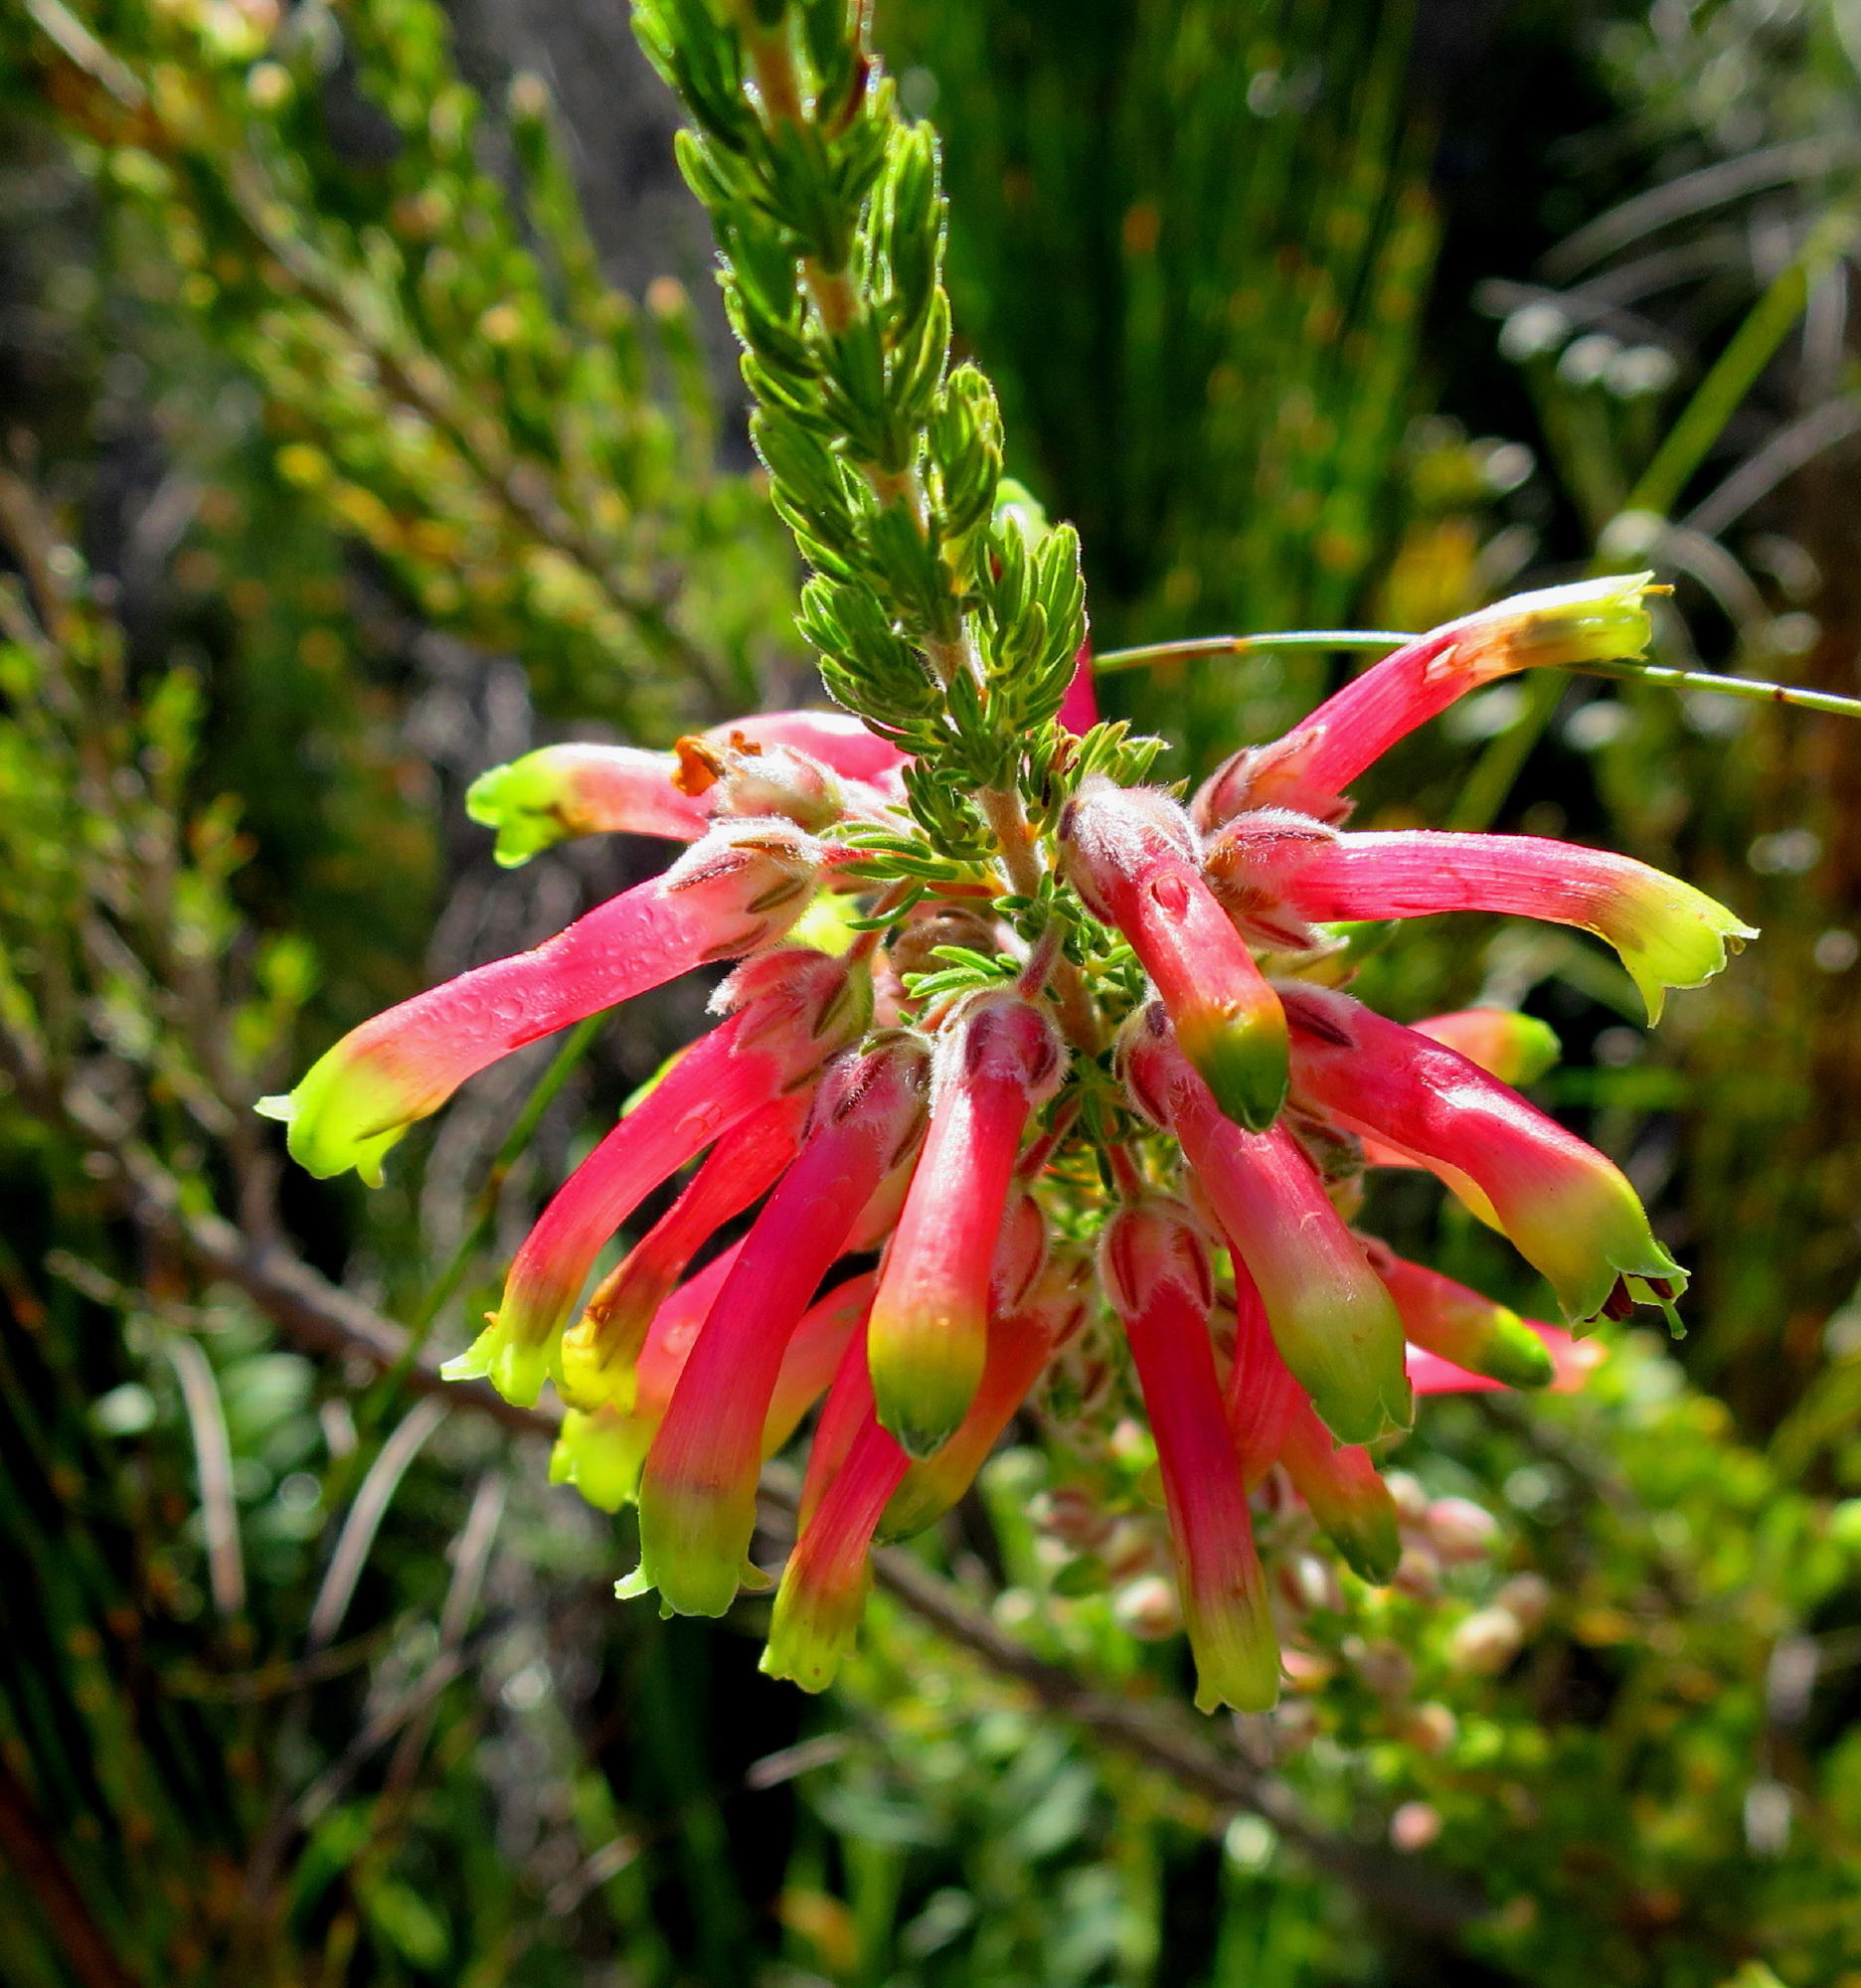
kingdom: Plantae
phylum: Tracheophyta
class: Magnoliopsida
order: Ericales
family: Ericaceae
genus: Erica
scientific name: Erica discolor
